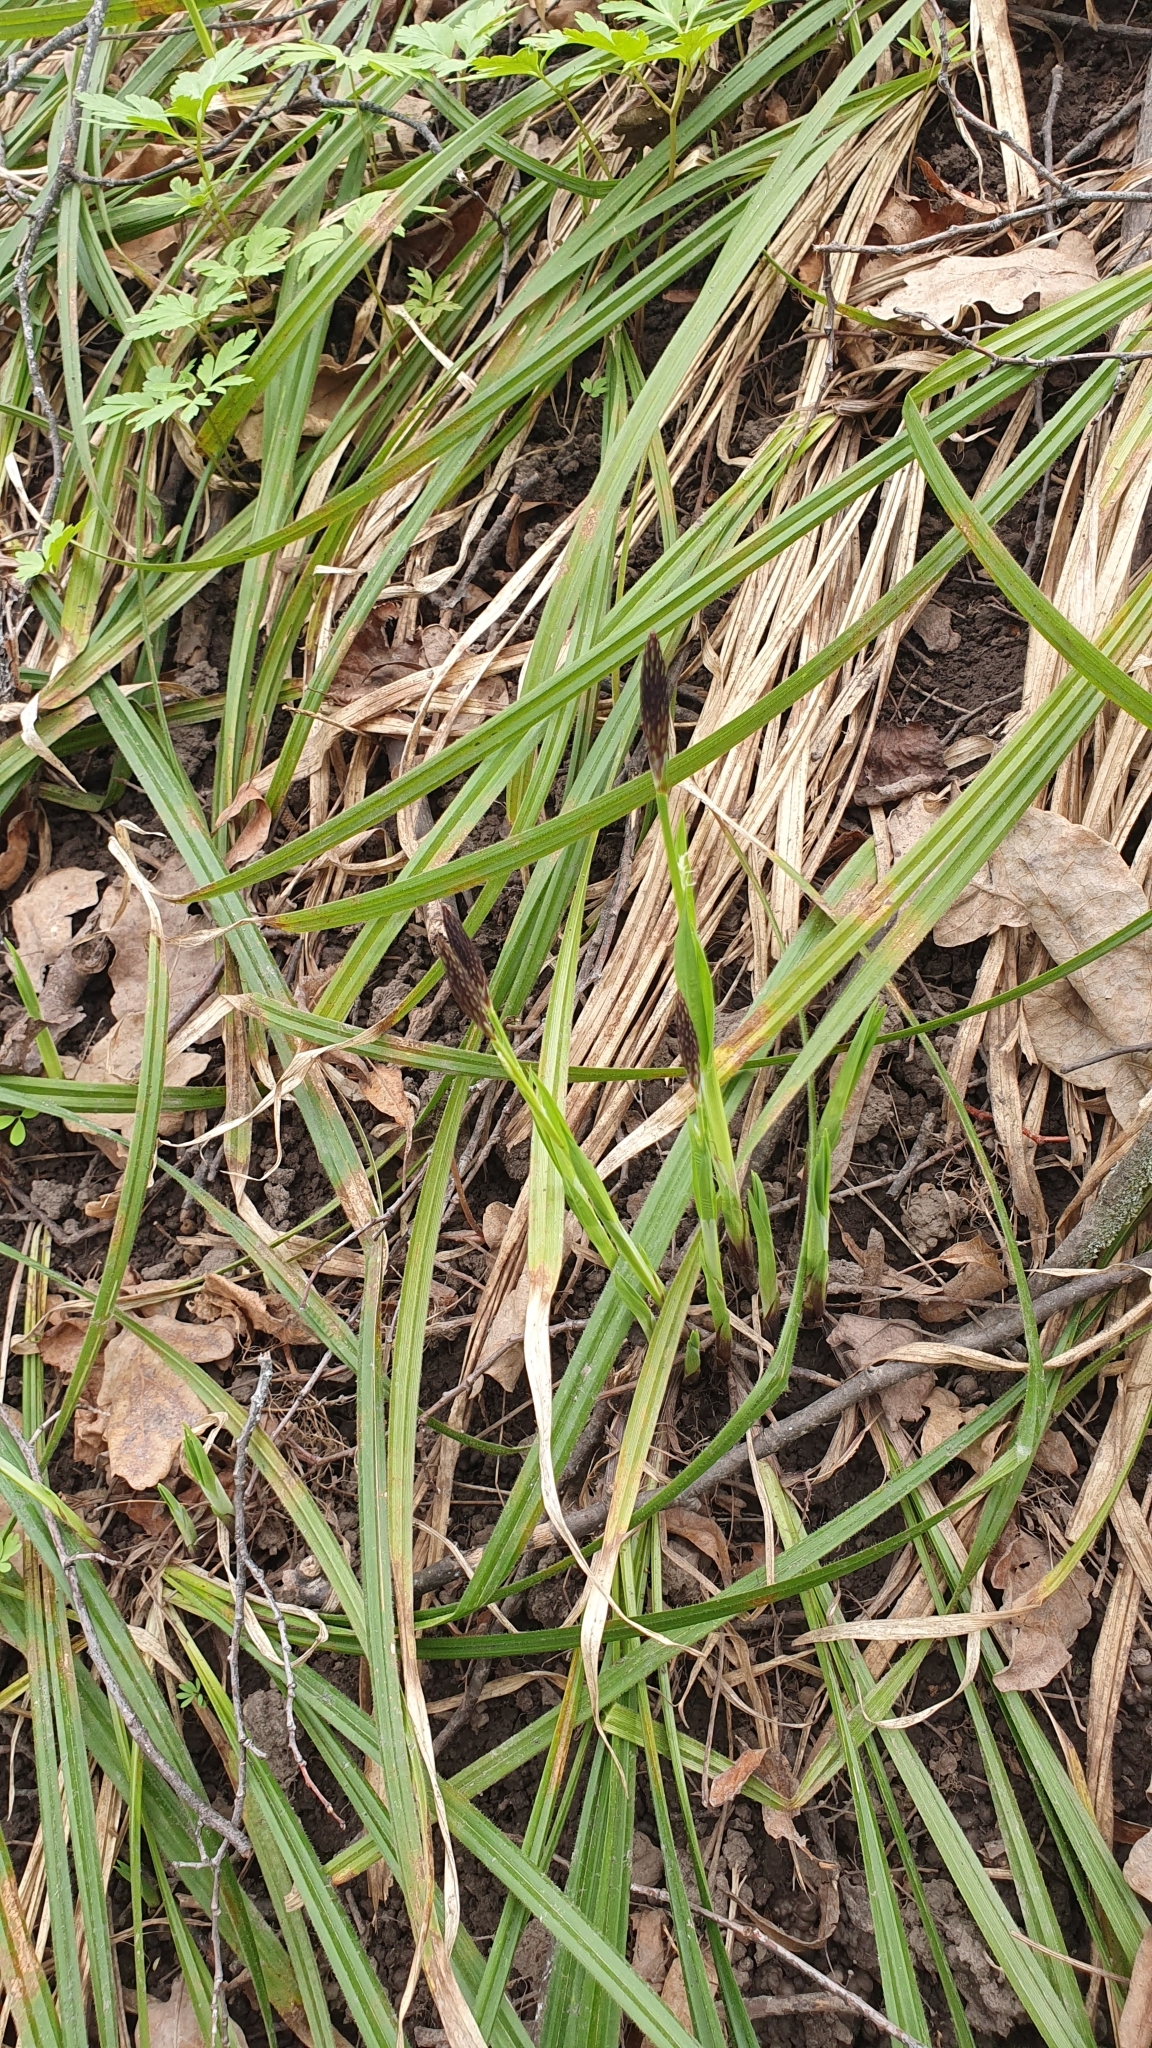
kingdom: Plantae
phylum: Tracheophyta
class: Liliopsida
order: Poales
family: Cyperaceae
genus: Carex
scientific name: Carex pilosa
